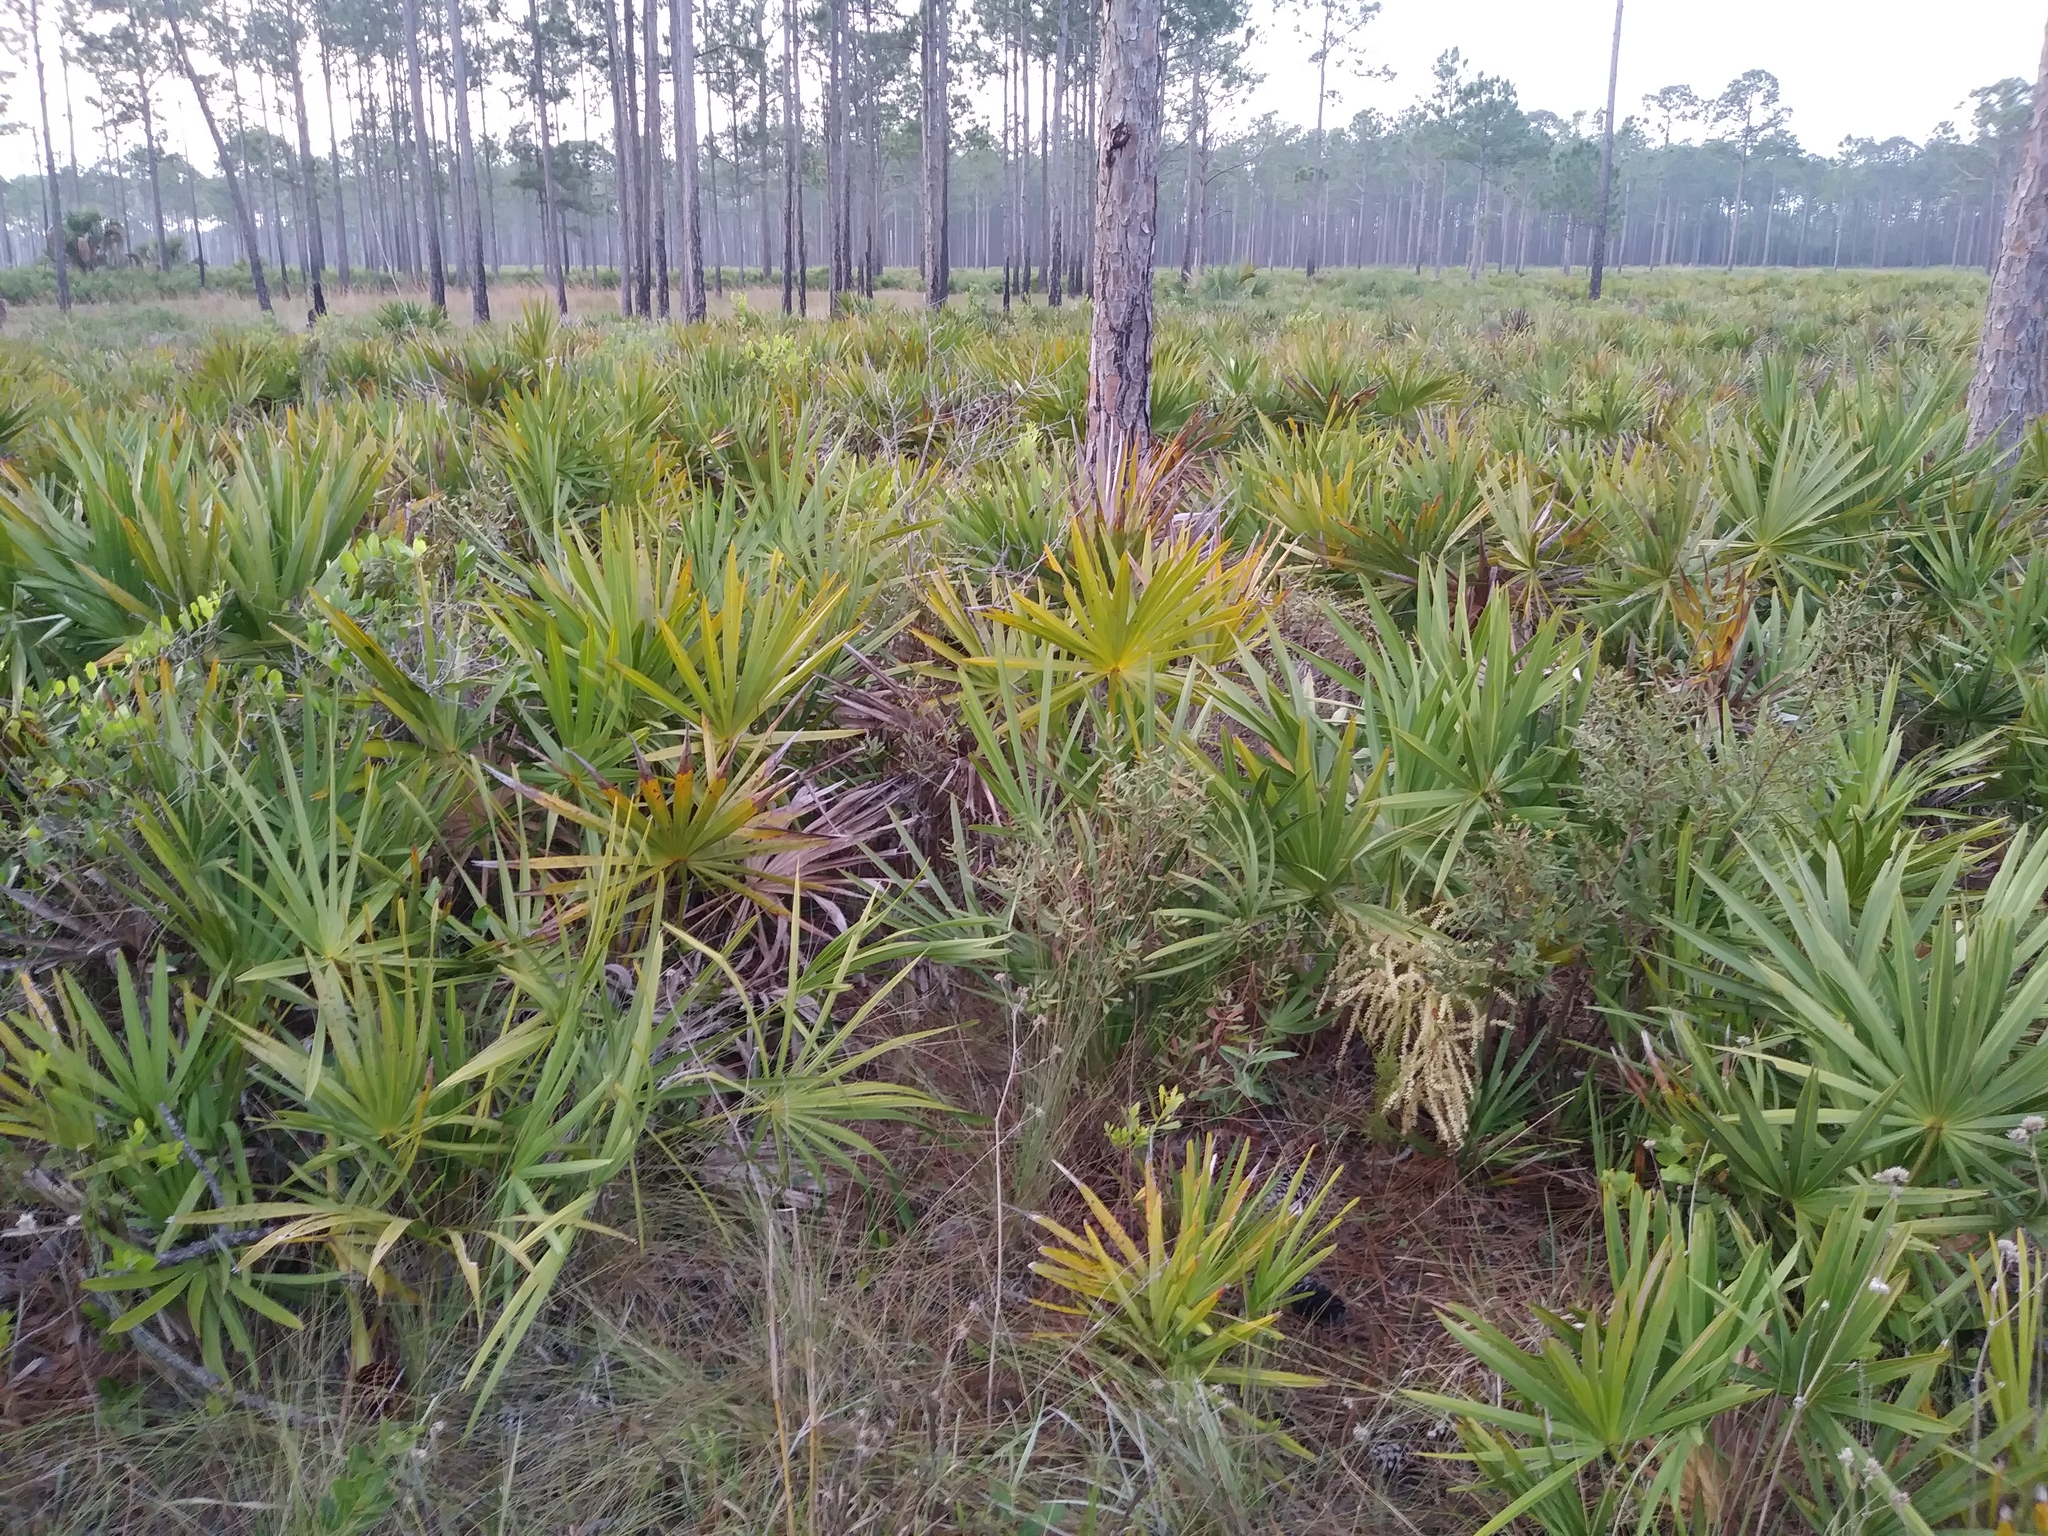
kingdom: Plantae
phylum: Tracheophyta
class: Liliopsida
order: Arecales
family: Arecaceae
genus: Serenoa
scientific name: Serenoa repens
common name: Saw-palmetto
